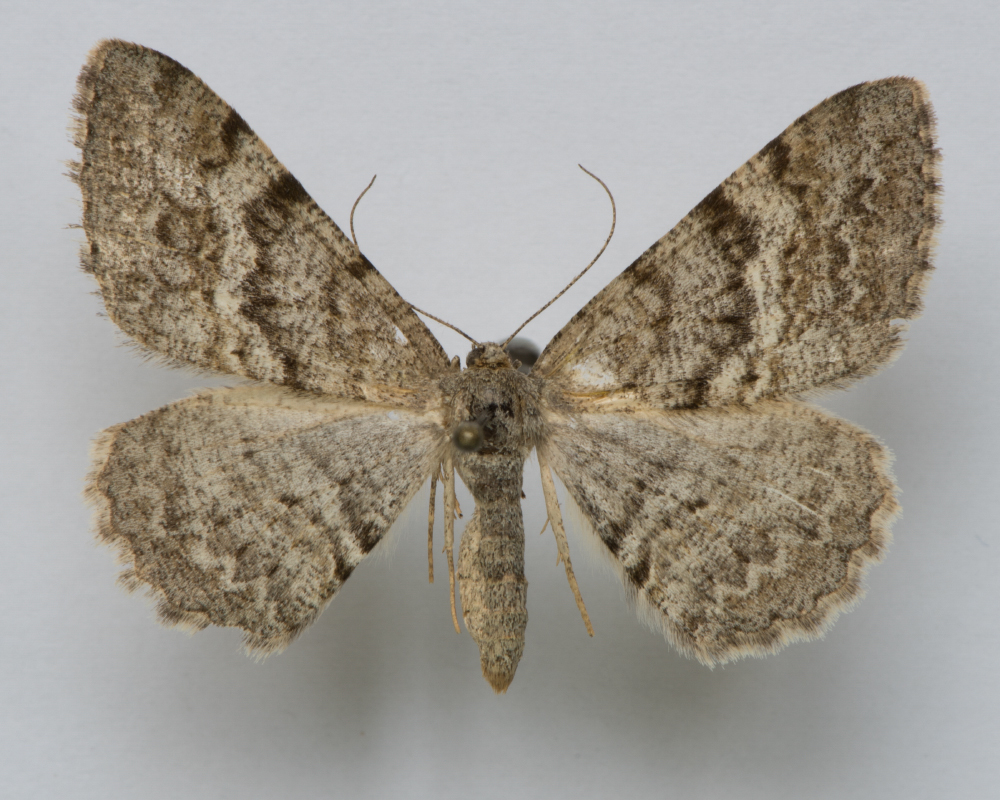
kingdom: Animalia
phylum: Arthropoda
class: Insecta
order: Lepidoptera
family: Geometridae
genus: Alcis
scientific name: Alcis extinctaria
